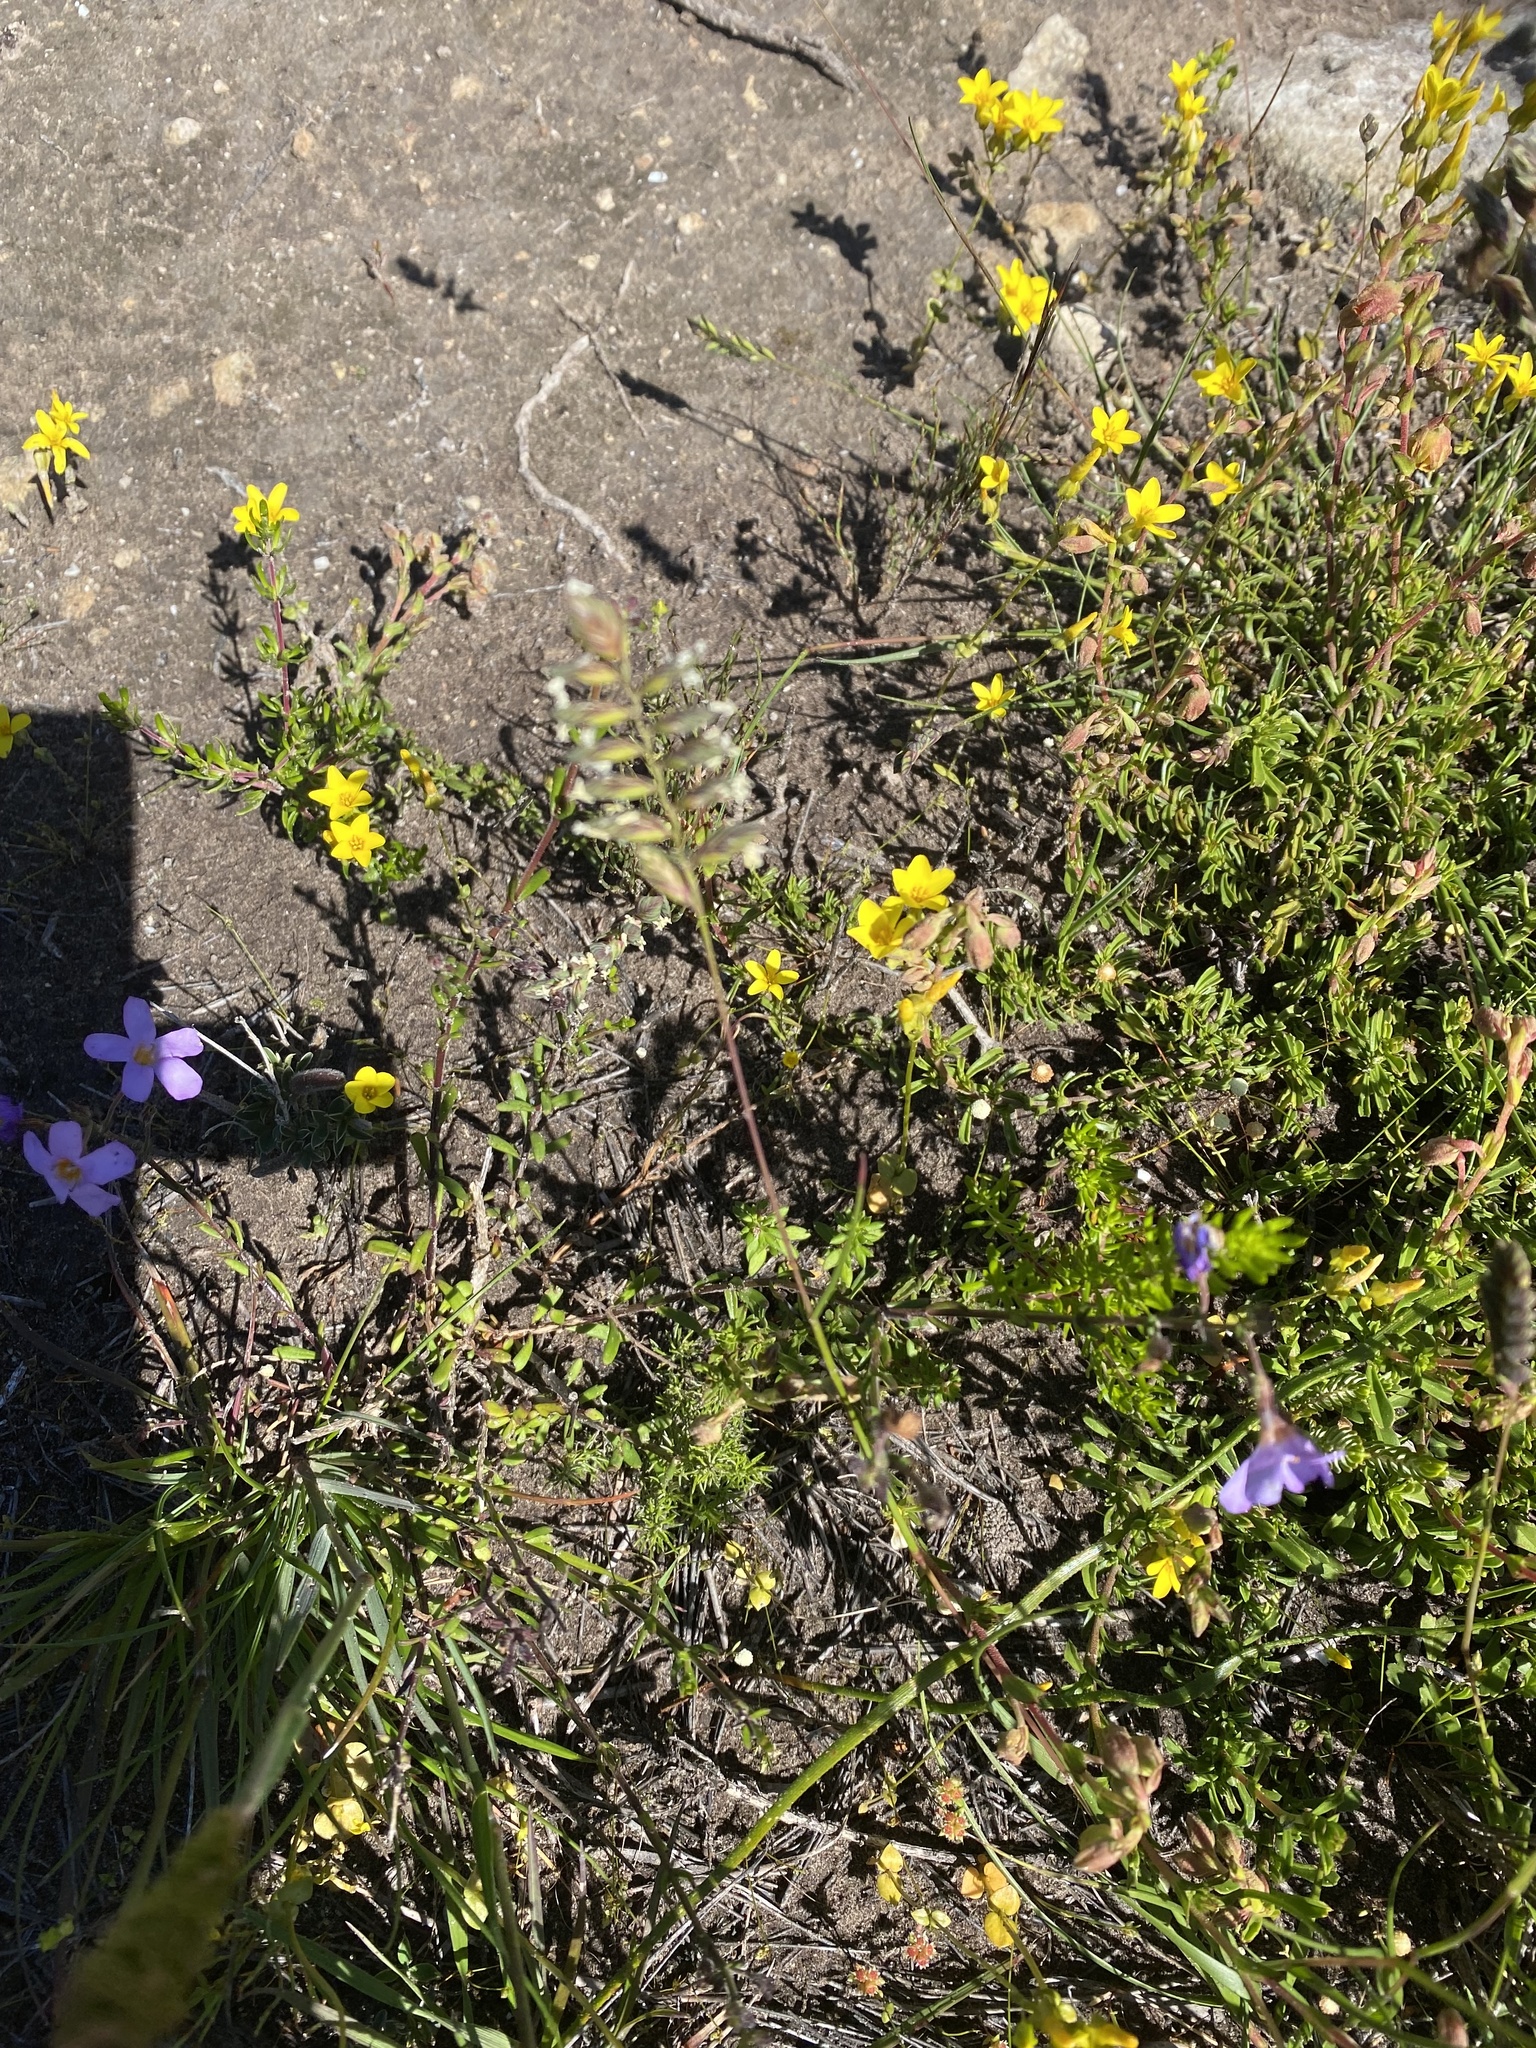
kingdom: Plantae
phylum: Tracheophyta
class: Liliopsida
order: Poales
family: Poaceae
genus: Tribolium
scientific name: Tribolium uniolae
